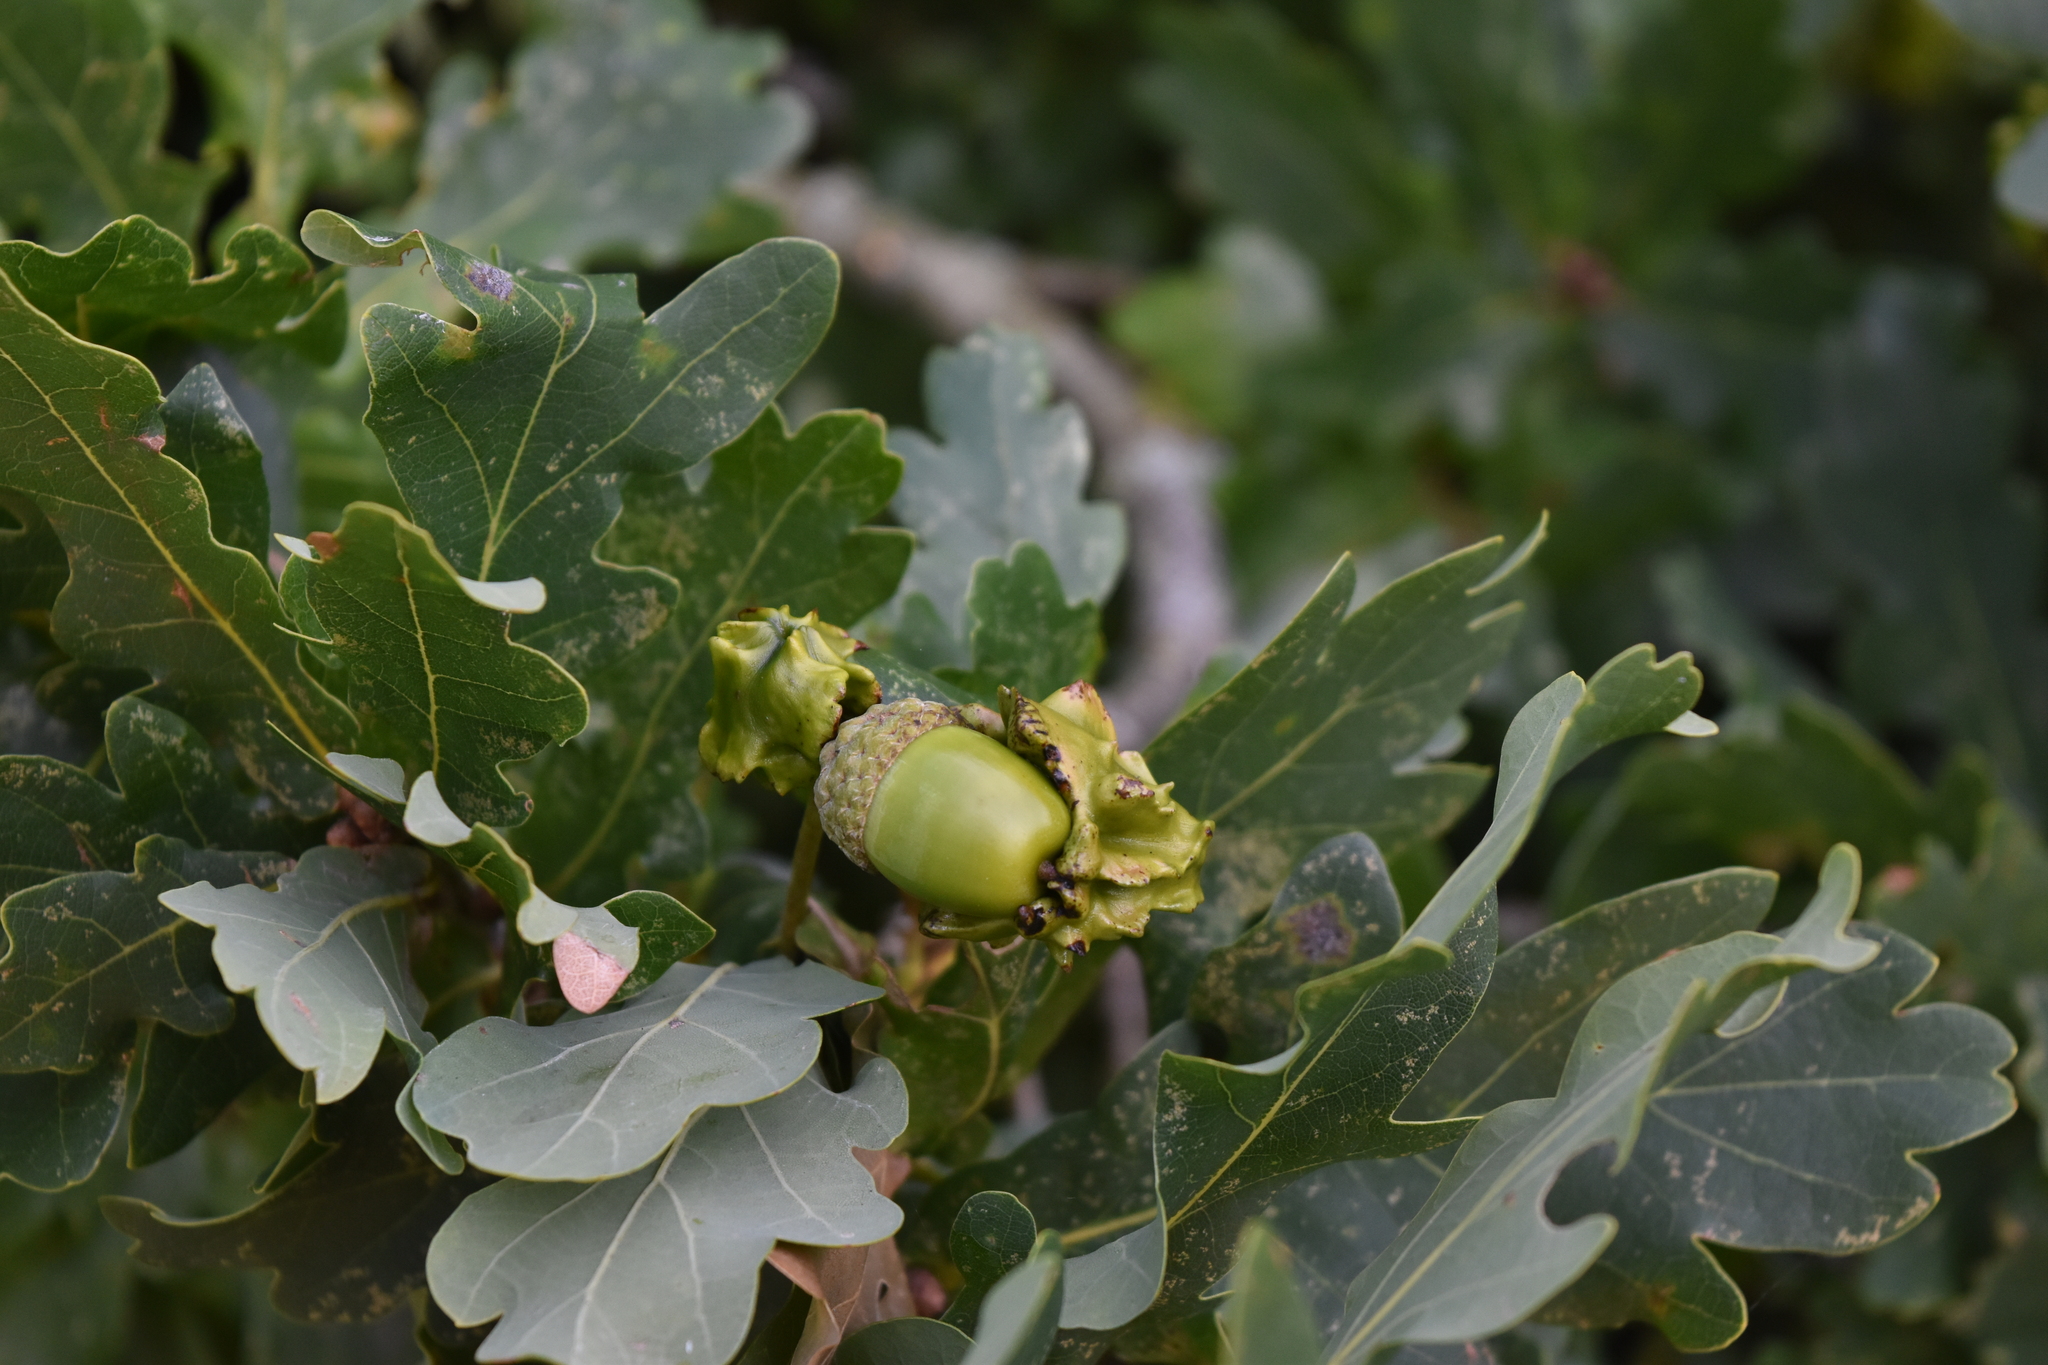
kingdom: Animalia
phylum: Arthropoda
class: Insecta
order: Hymenoptera
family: Cynipidae
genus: Andricus
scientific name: Andricus quercuscalicis
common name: Knopper gall
